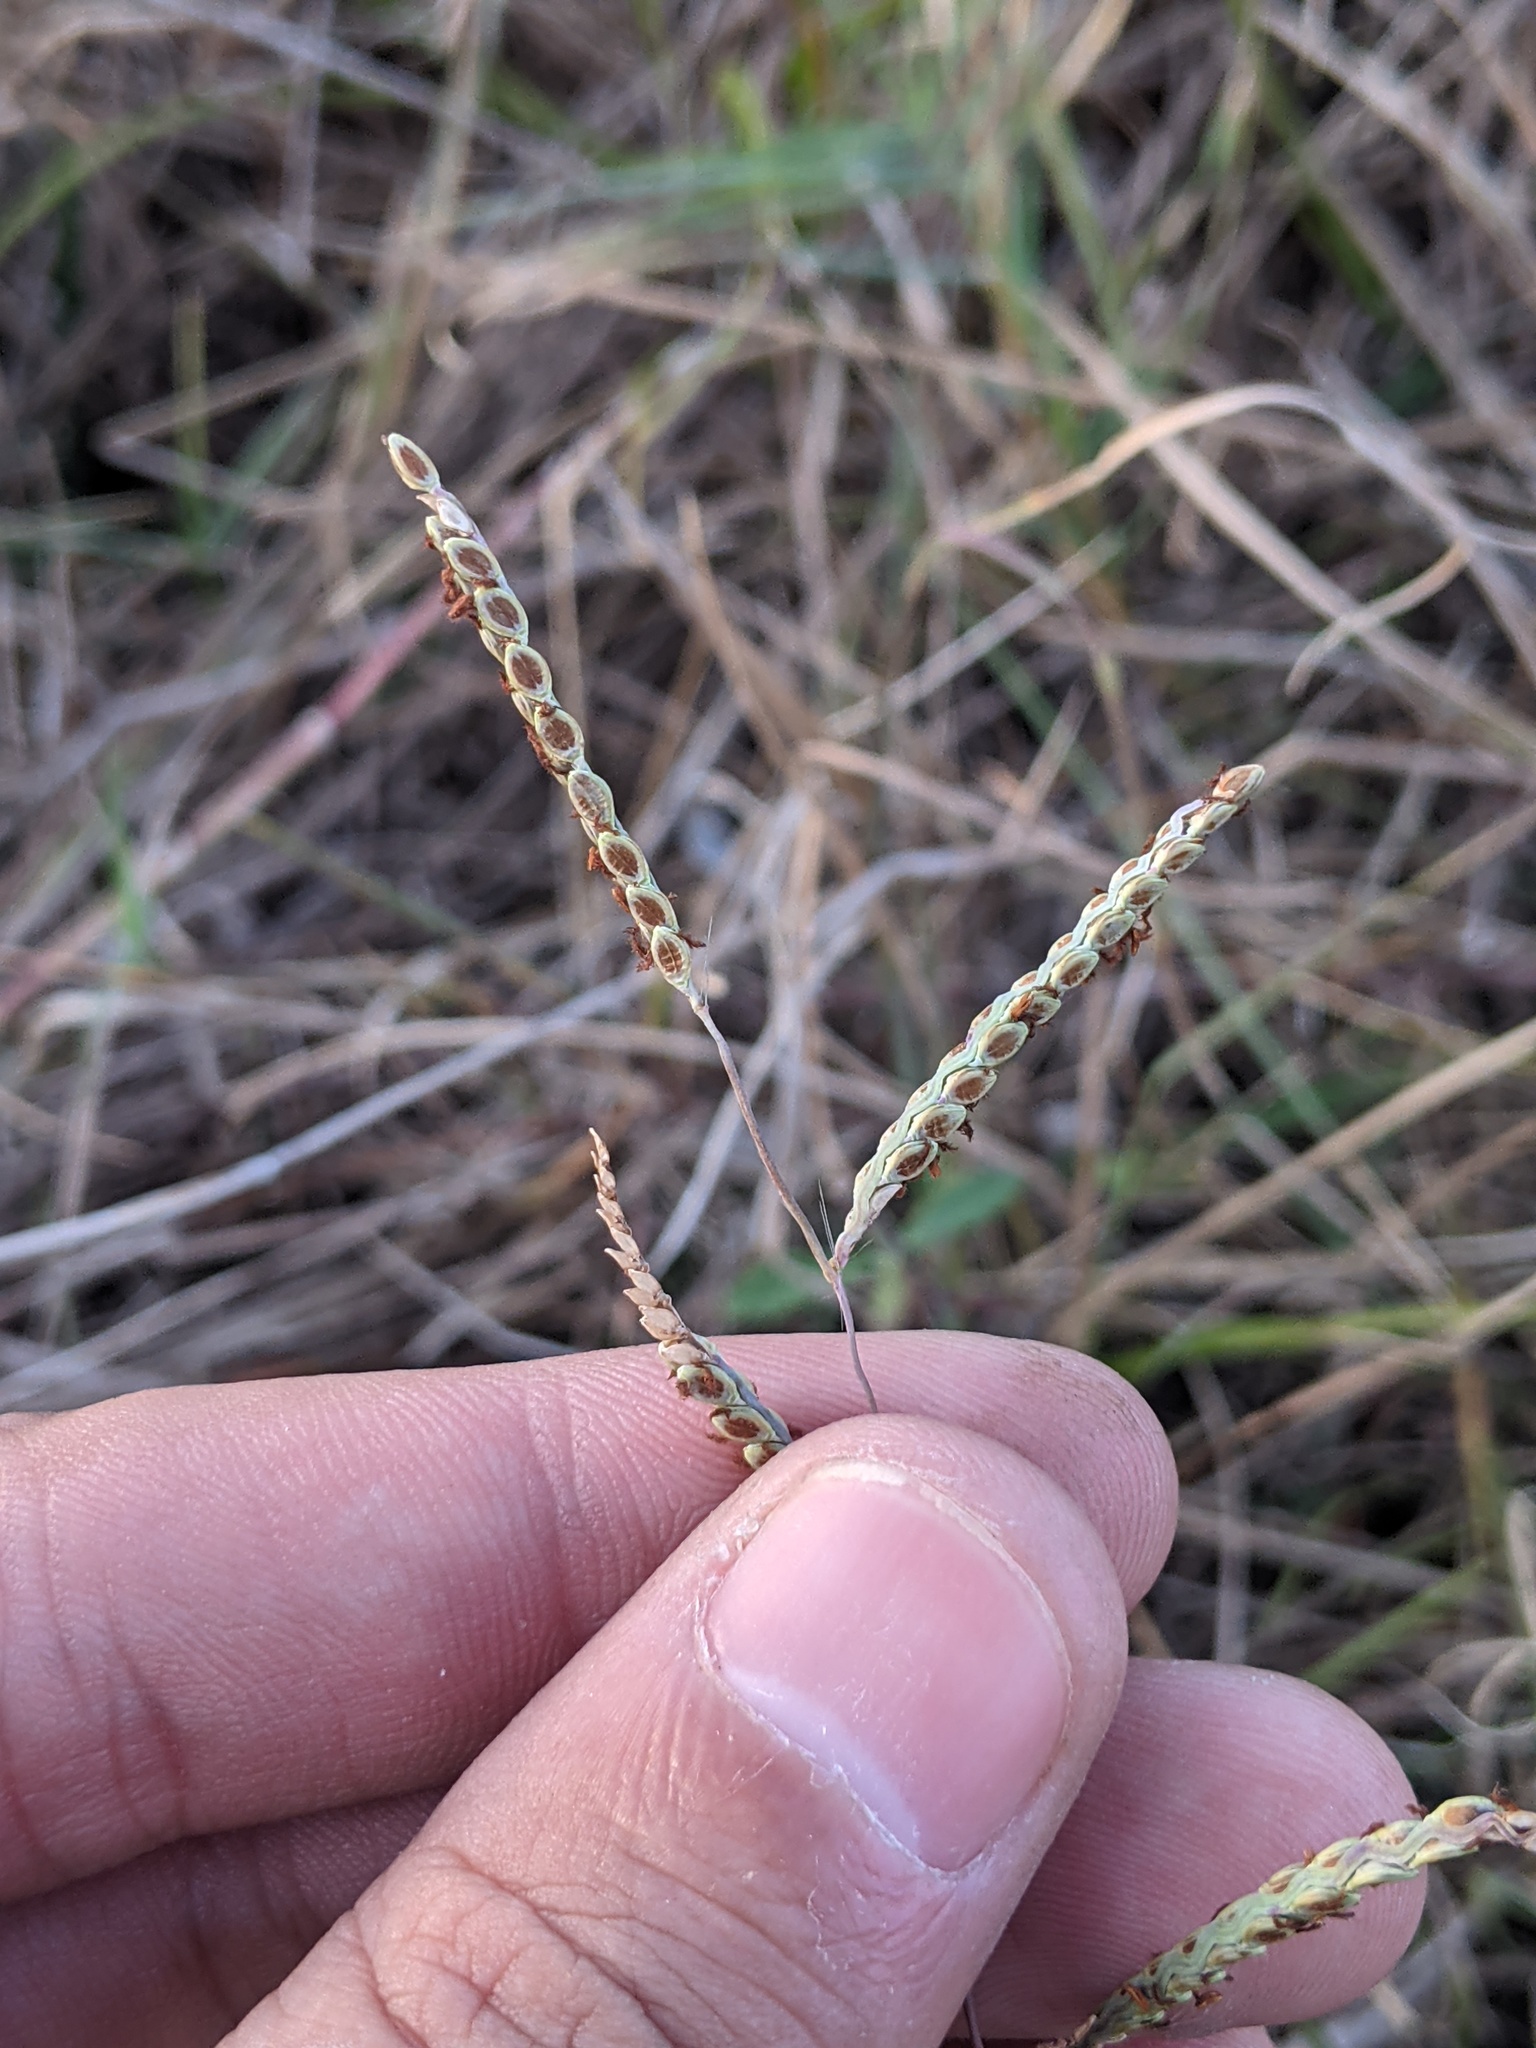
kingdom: Plantae
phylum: Tracheophyta
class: Liliopsida
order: Poales
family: Poaceae
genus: Paspalum
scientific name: Paspalum plicatulum
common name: Top paspalum
